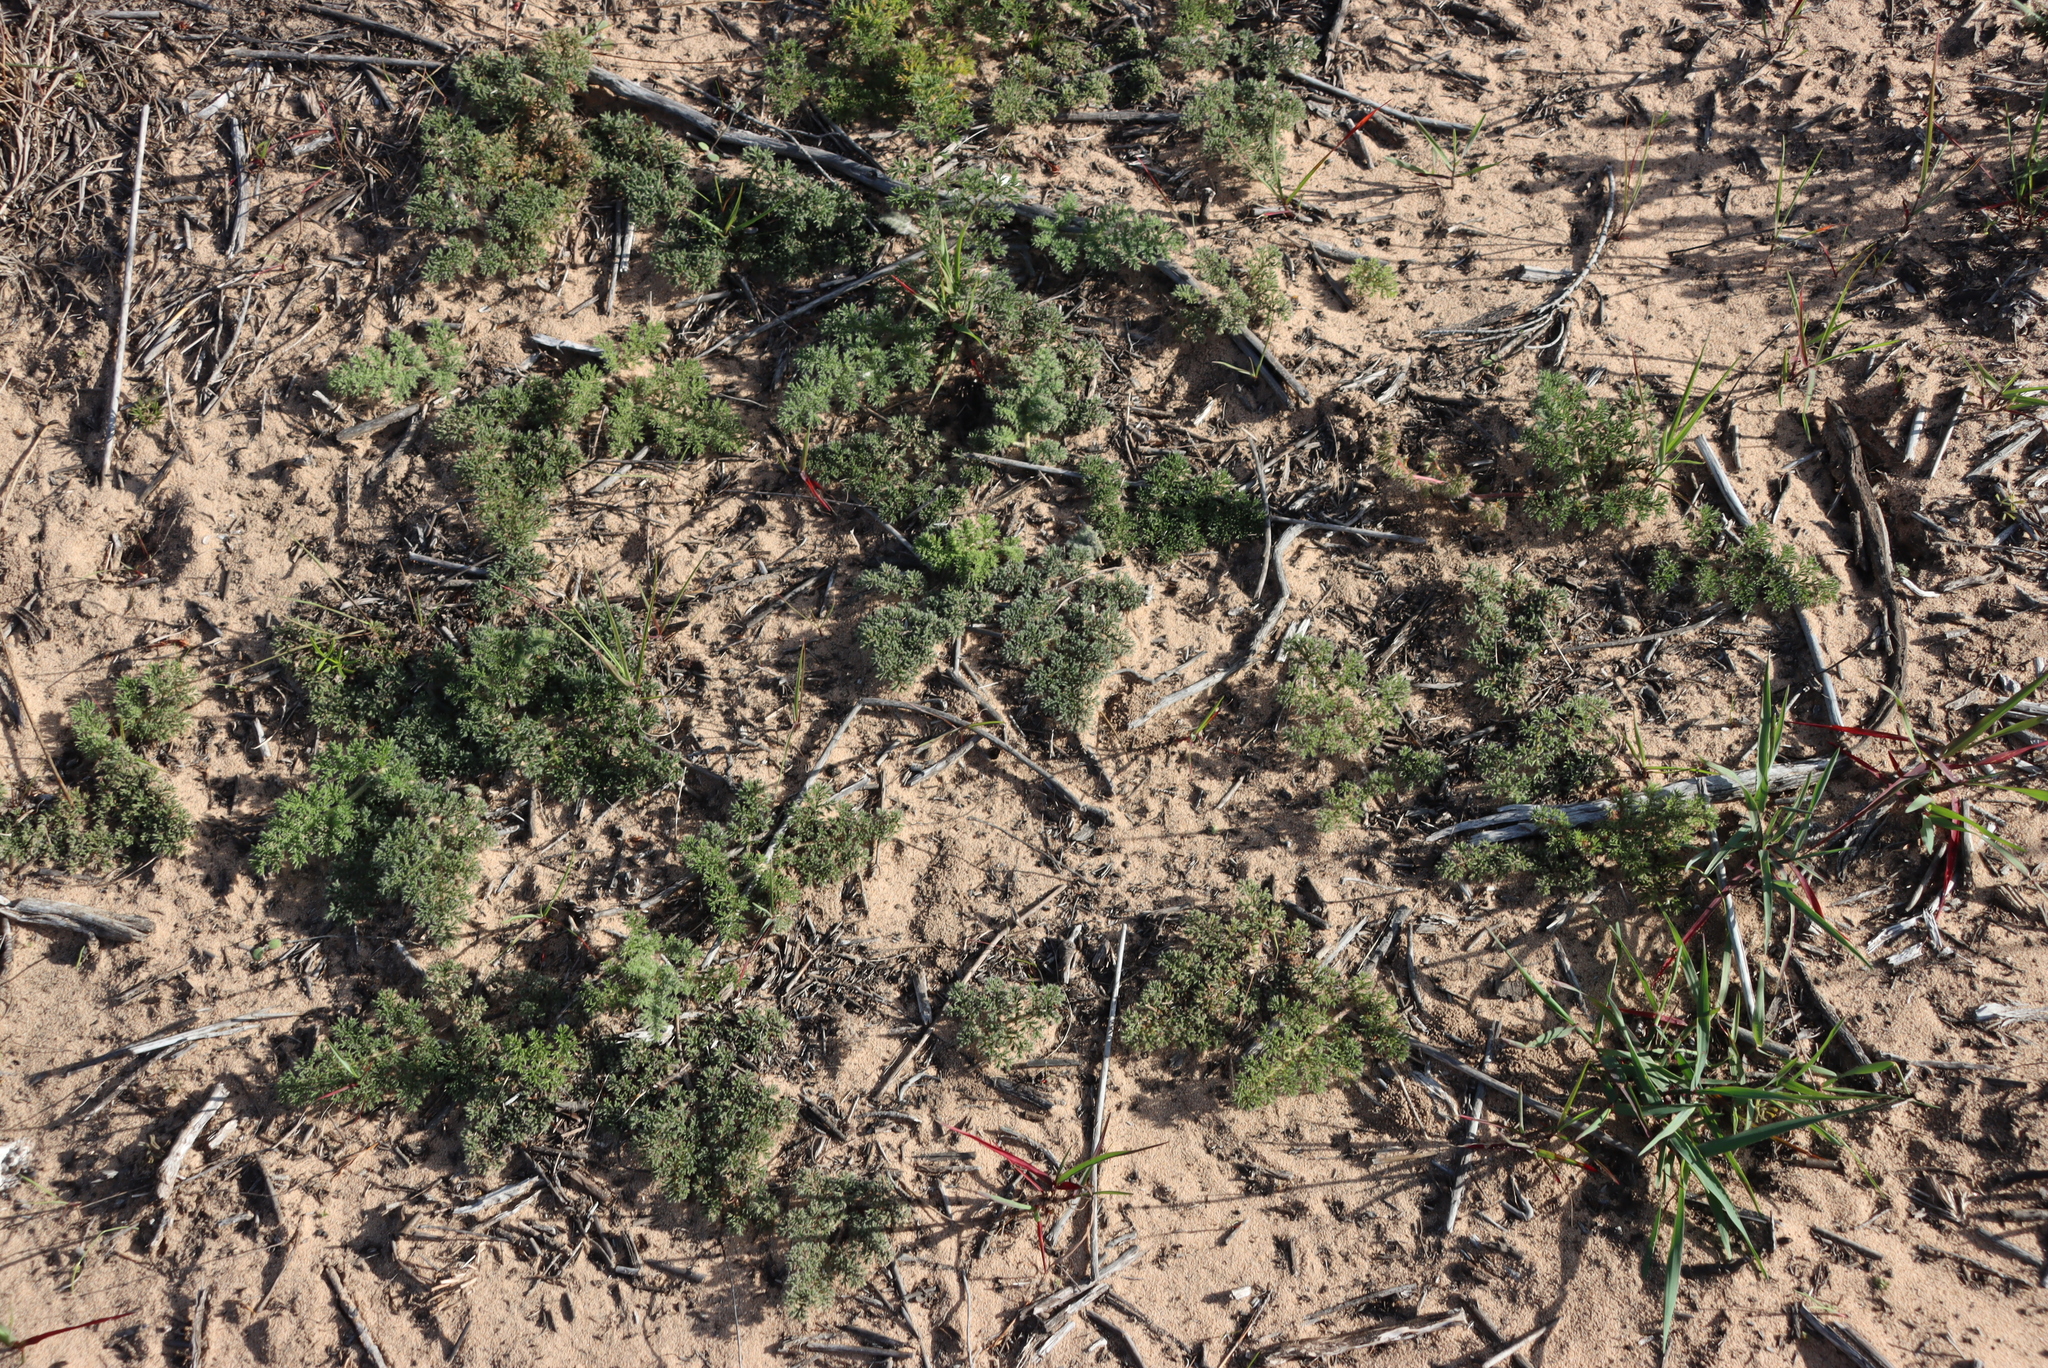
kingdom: Plantae
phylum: Tracheophyta
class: Magnoliopsida
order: Geraniales
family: Geraniaceae
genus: Pelargonium
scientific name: Pelargonium triste
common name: Night-scent pelargonium
